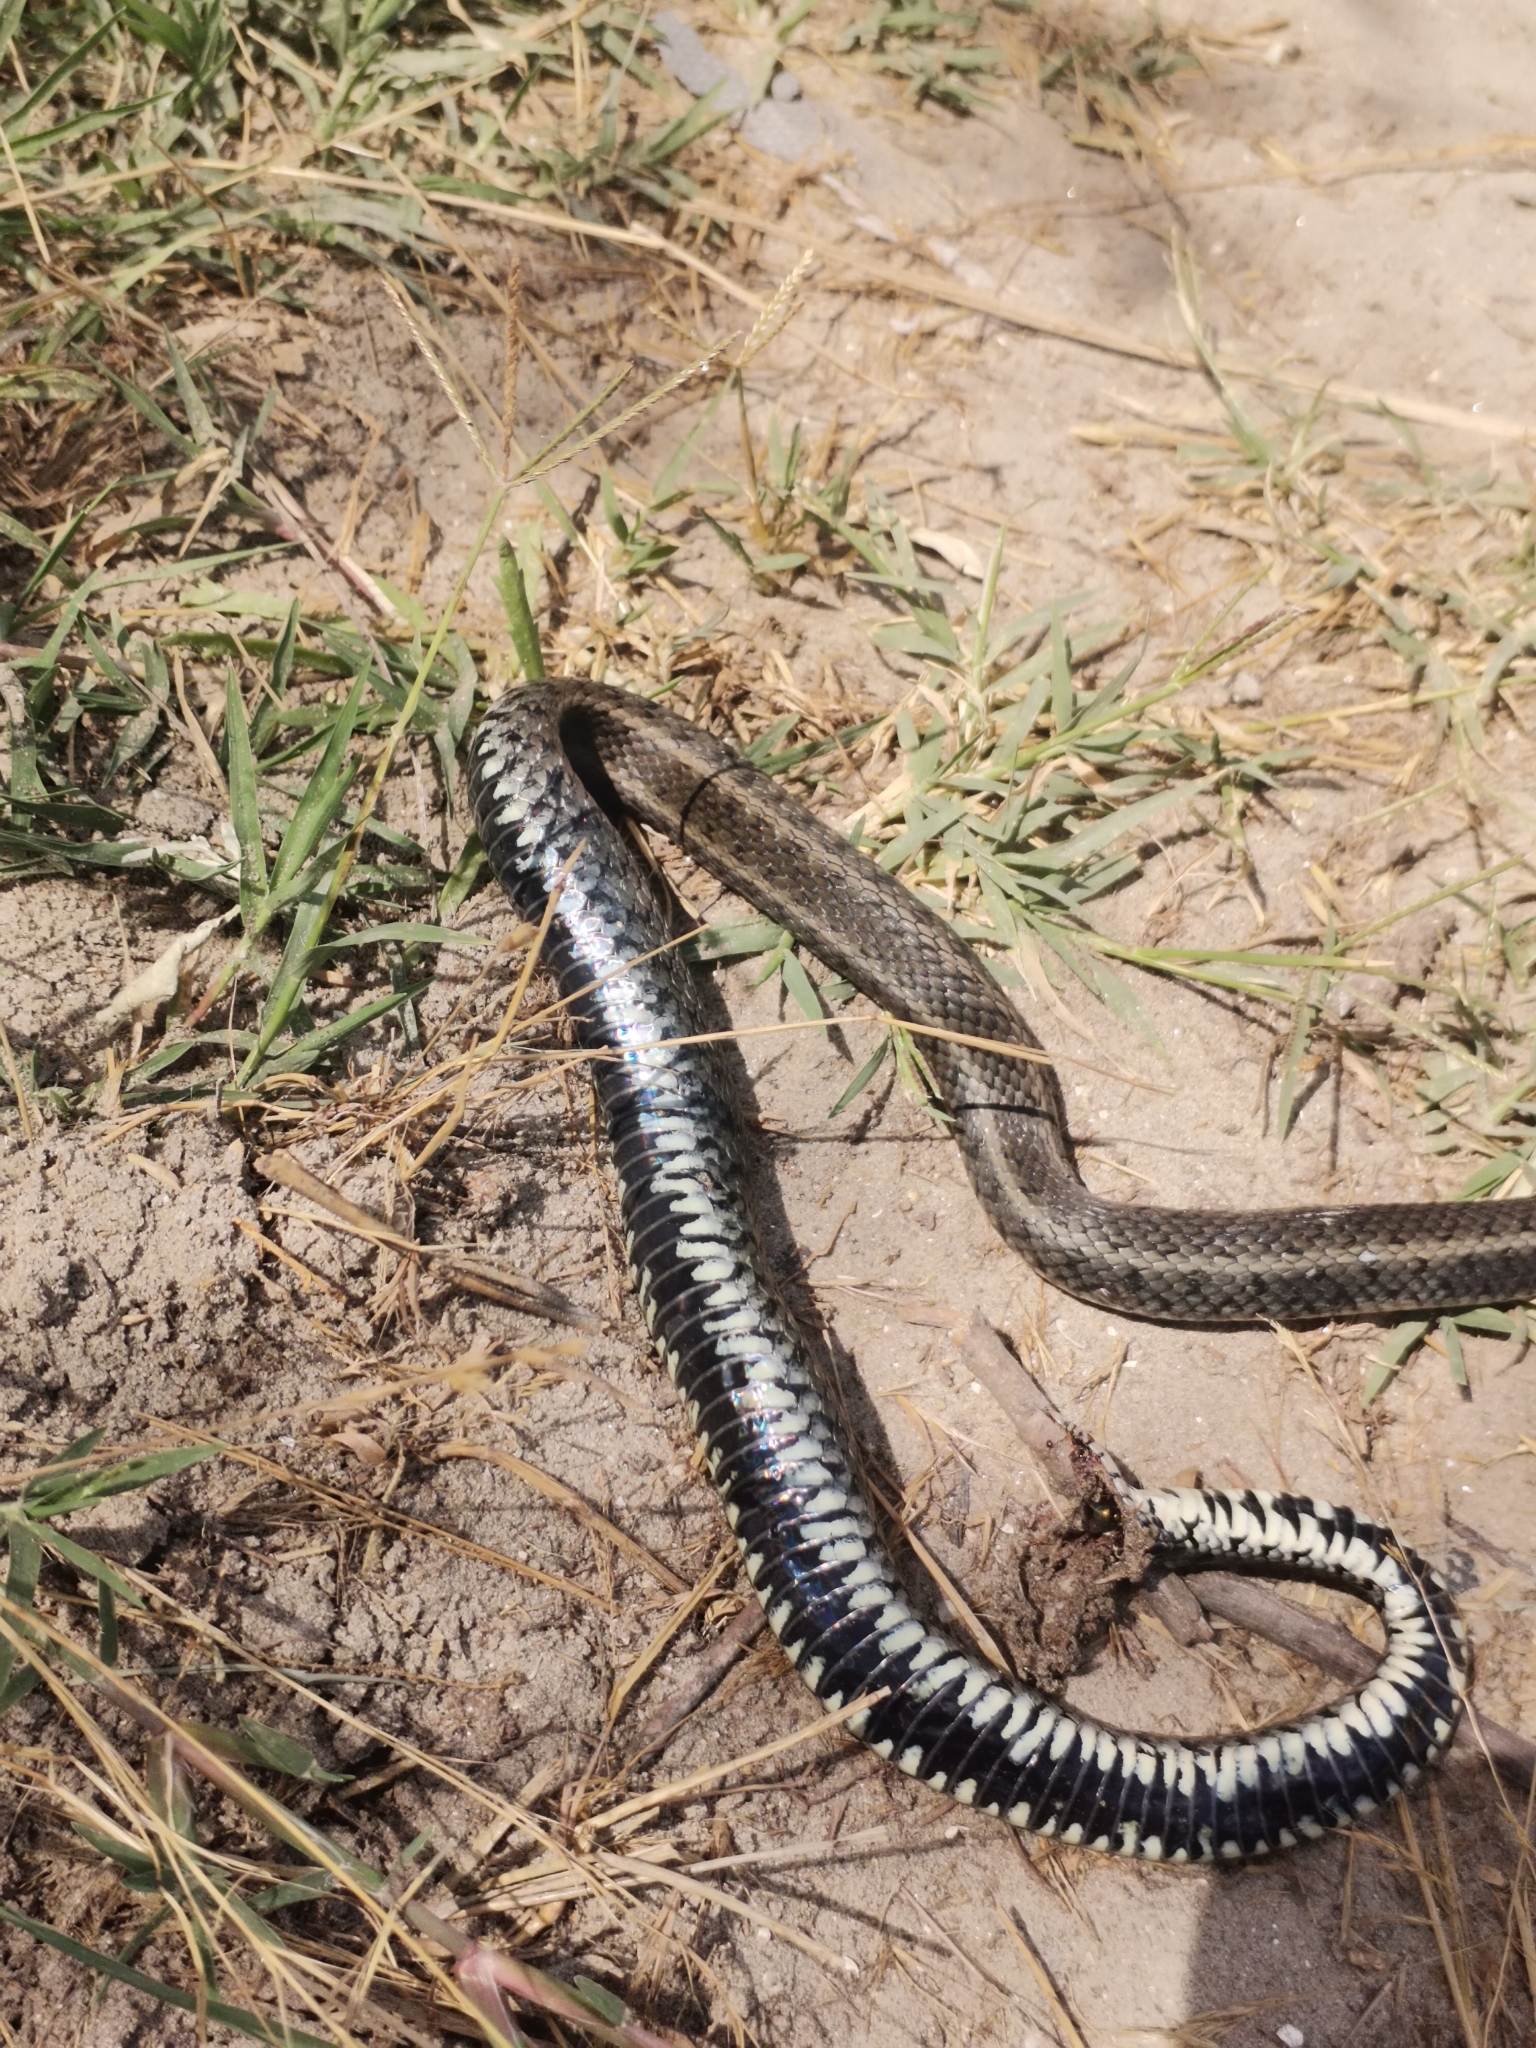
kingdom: Animalia
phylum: Chordata
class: Squamata
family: Colubridae
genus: Natrix
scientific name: Natrix natrix
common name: Grass snake
